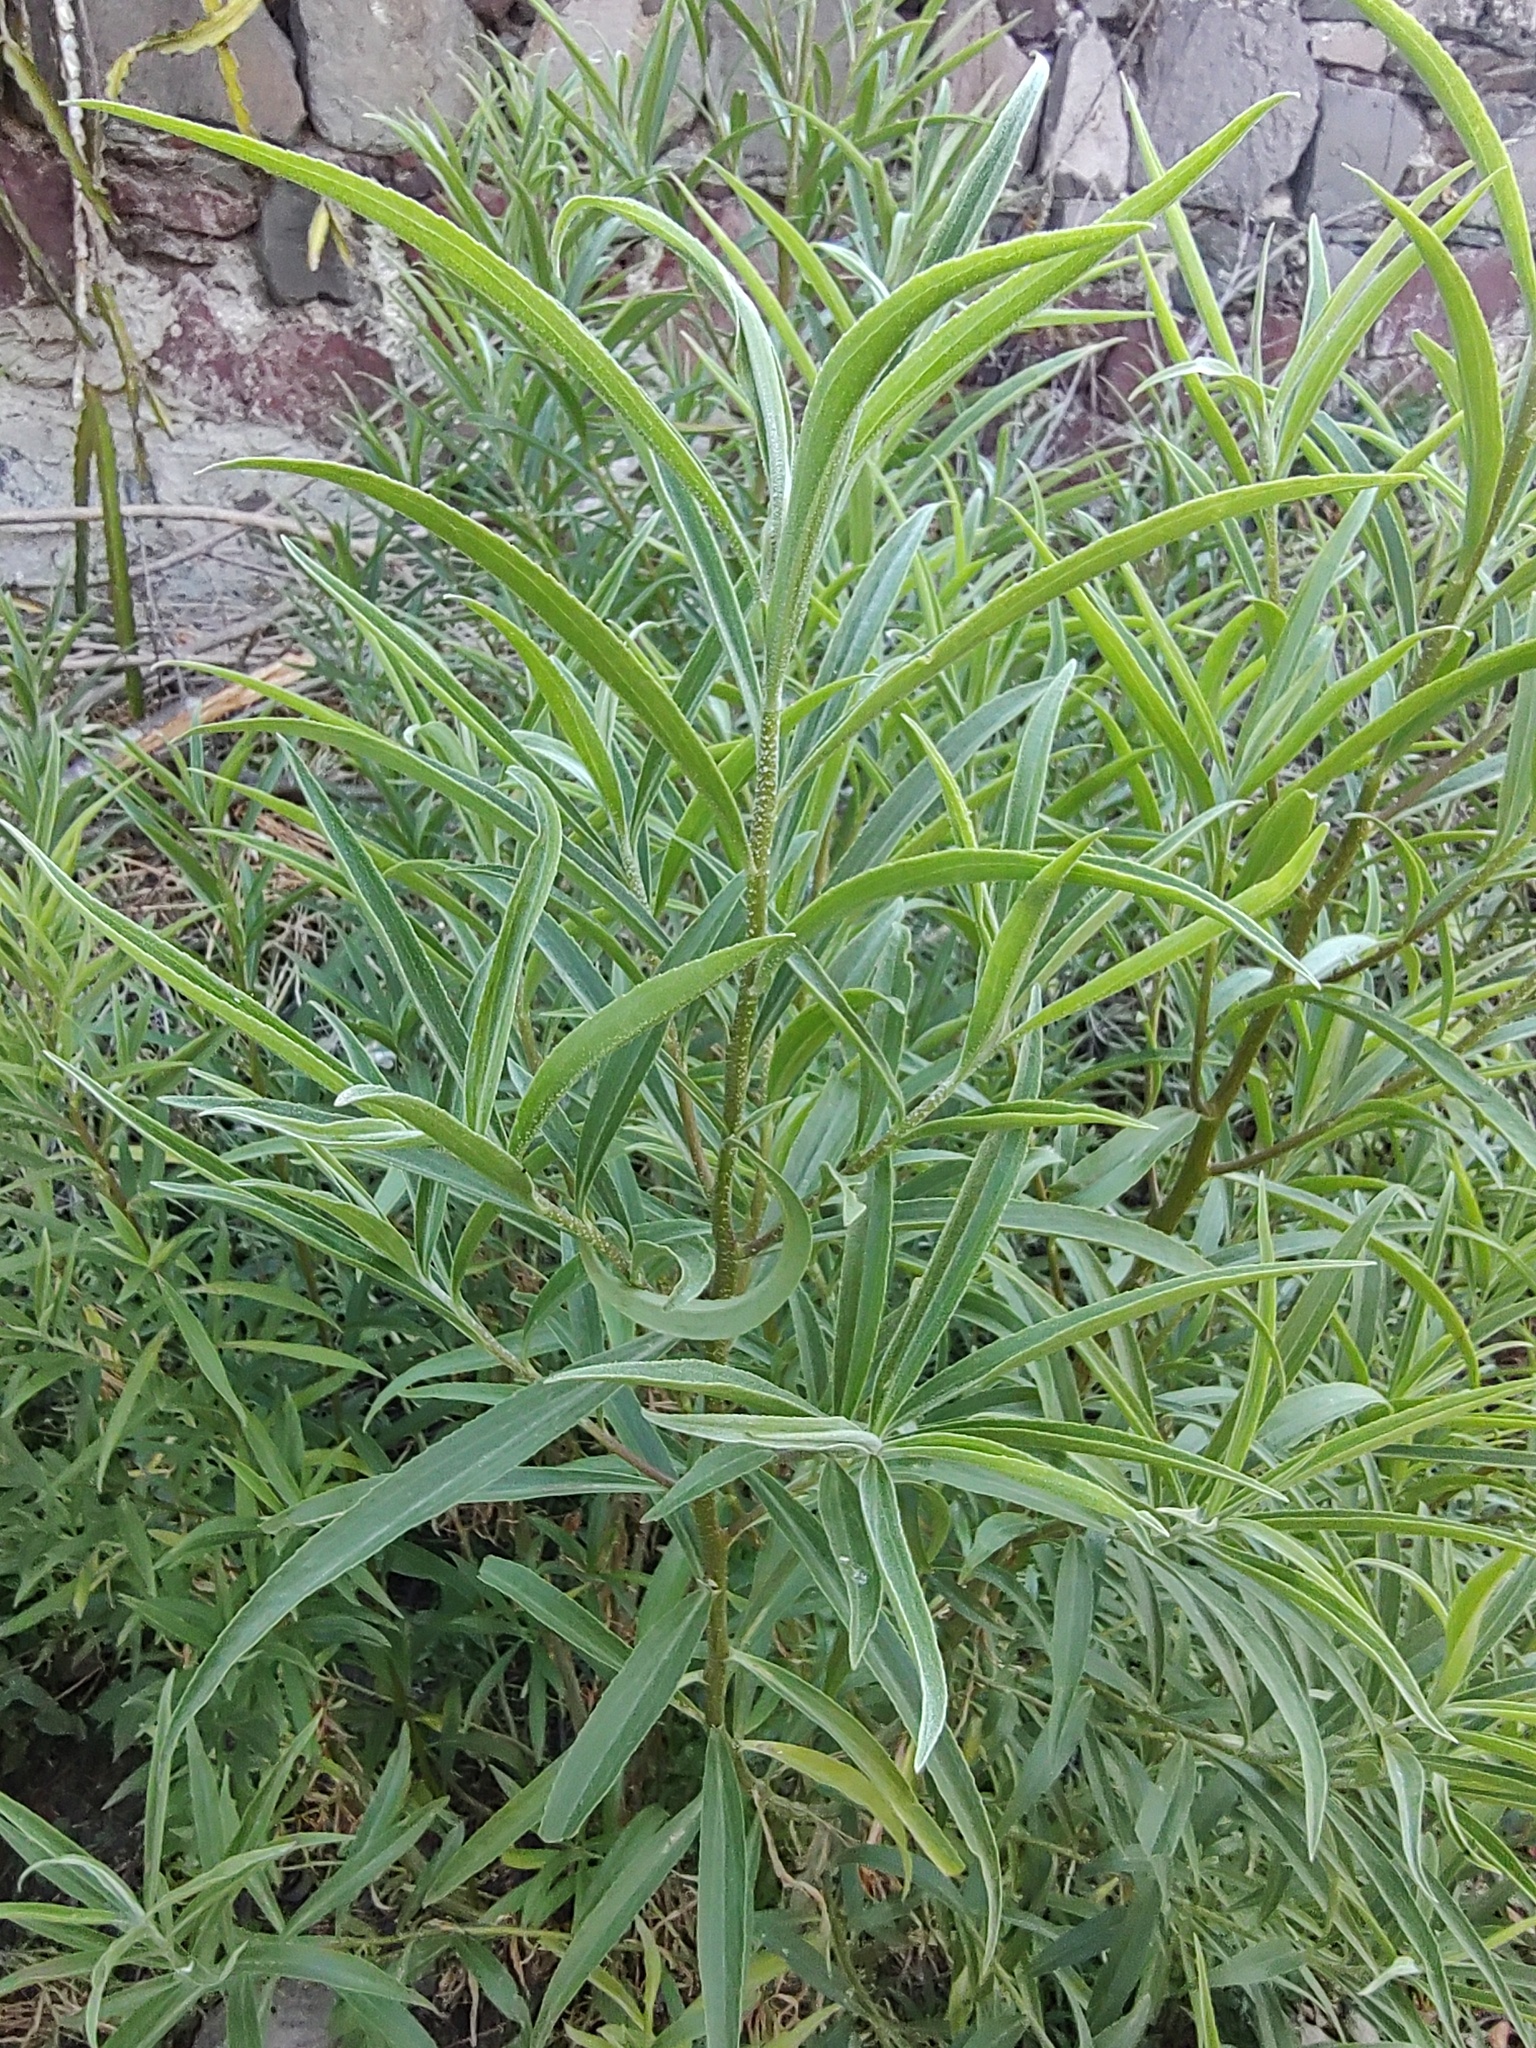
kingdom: Plantae
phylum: Tracheophyta
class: Magnoliopsida
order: Asterales
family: Asteraceae
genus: Barkleyanthus
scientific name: Barkleyanthus salicifolius
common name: Willow ragwort
